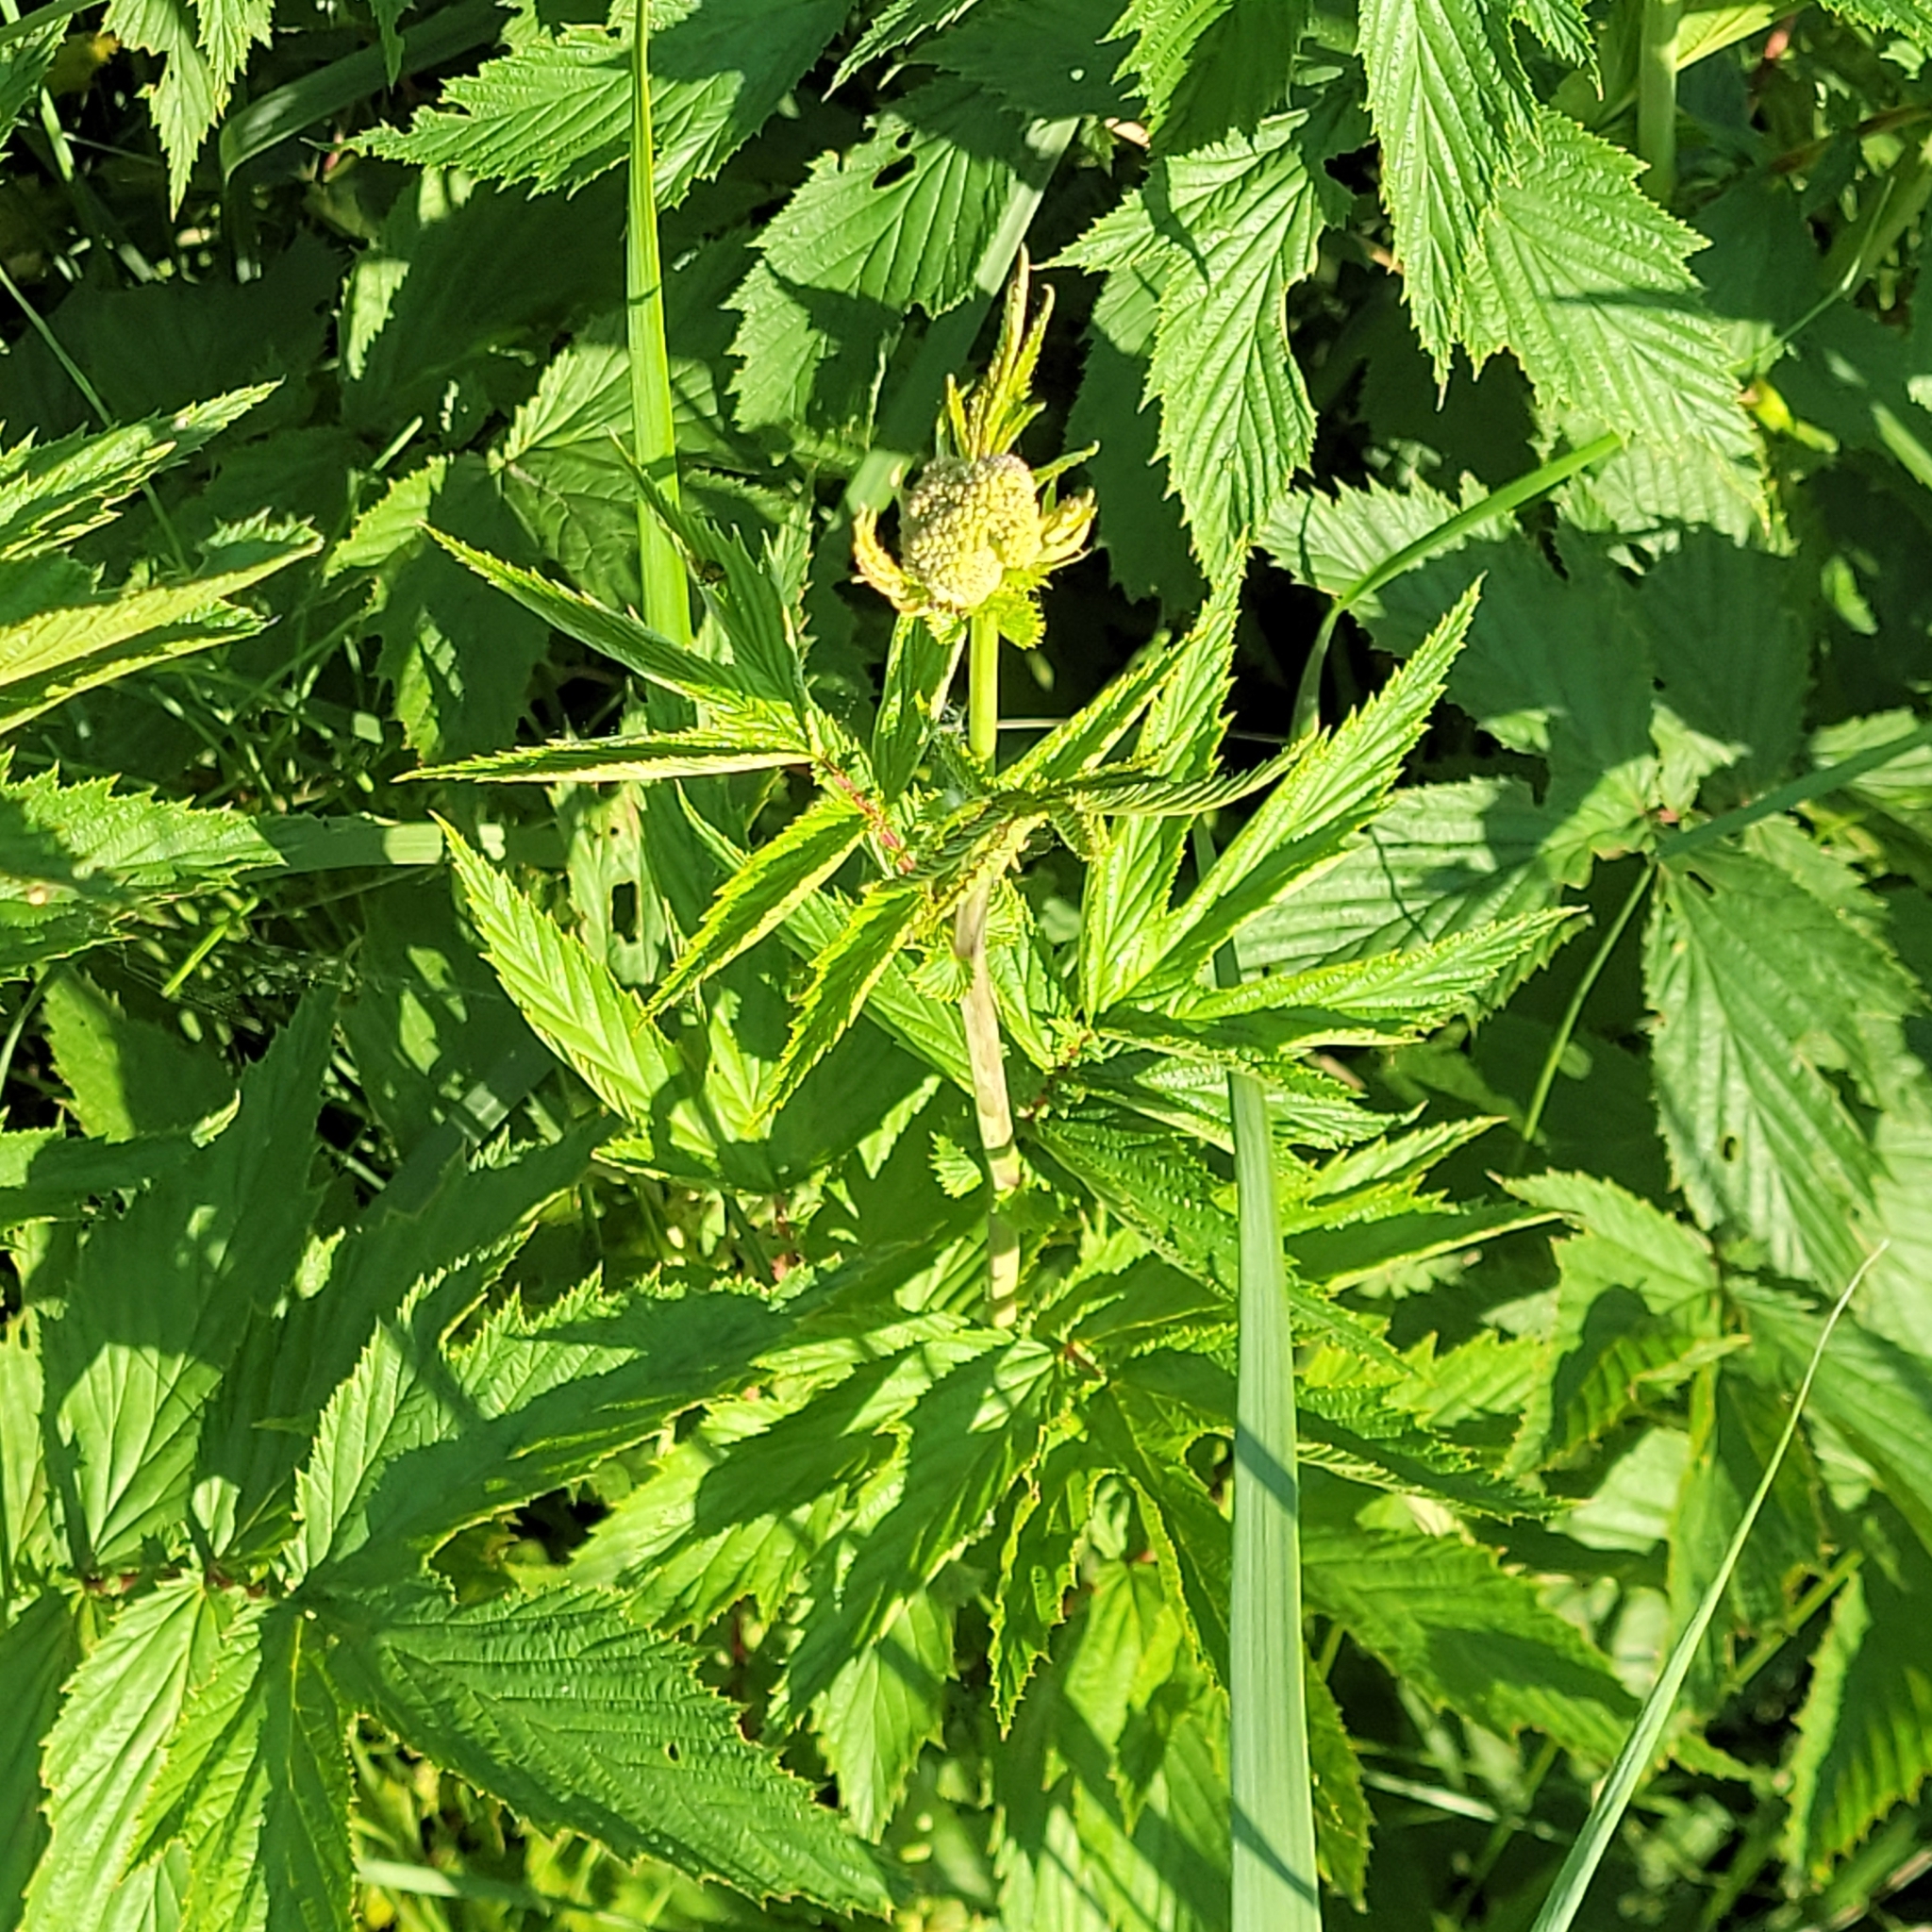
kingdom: Plantae
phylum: Tracheophyta
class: Magnoliopsida
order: Rosales
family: Rosaceae
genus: Filipendula
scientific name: Filipendula ulmaria
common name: Meadowsweet
